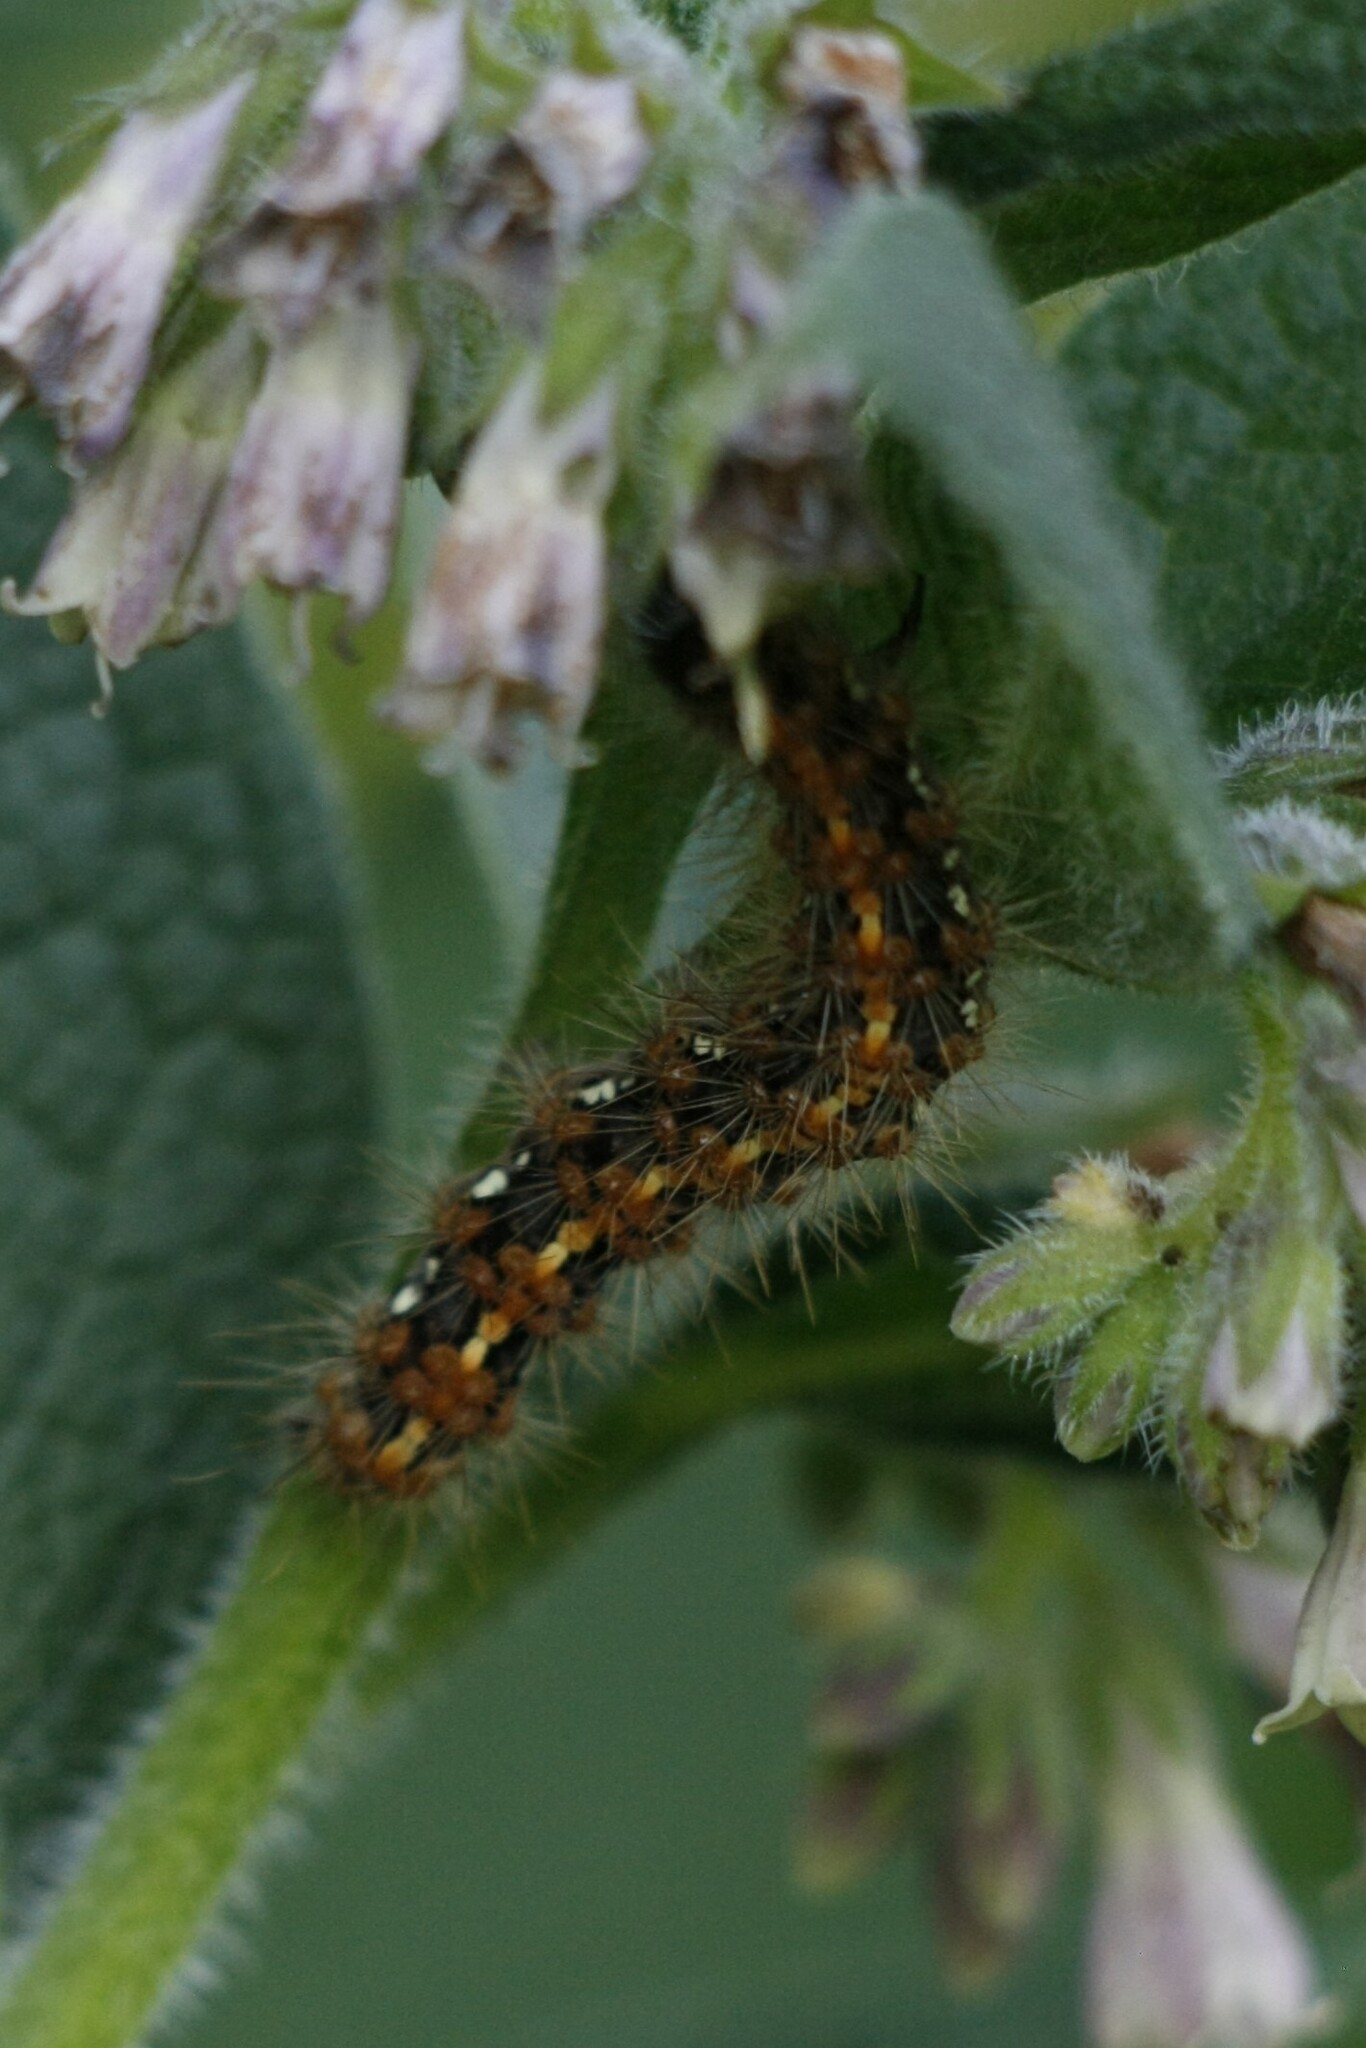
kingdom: Animalia
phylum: Arthropoda
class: Insecta
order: Lepidoptera
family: Erebidae
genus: Euplagia
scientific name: Euplagia quadripunctaria
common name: Jersey tiger
